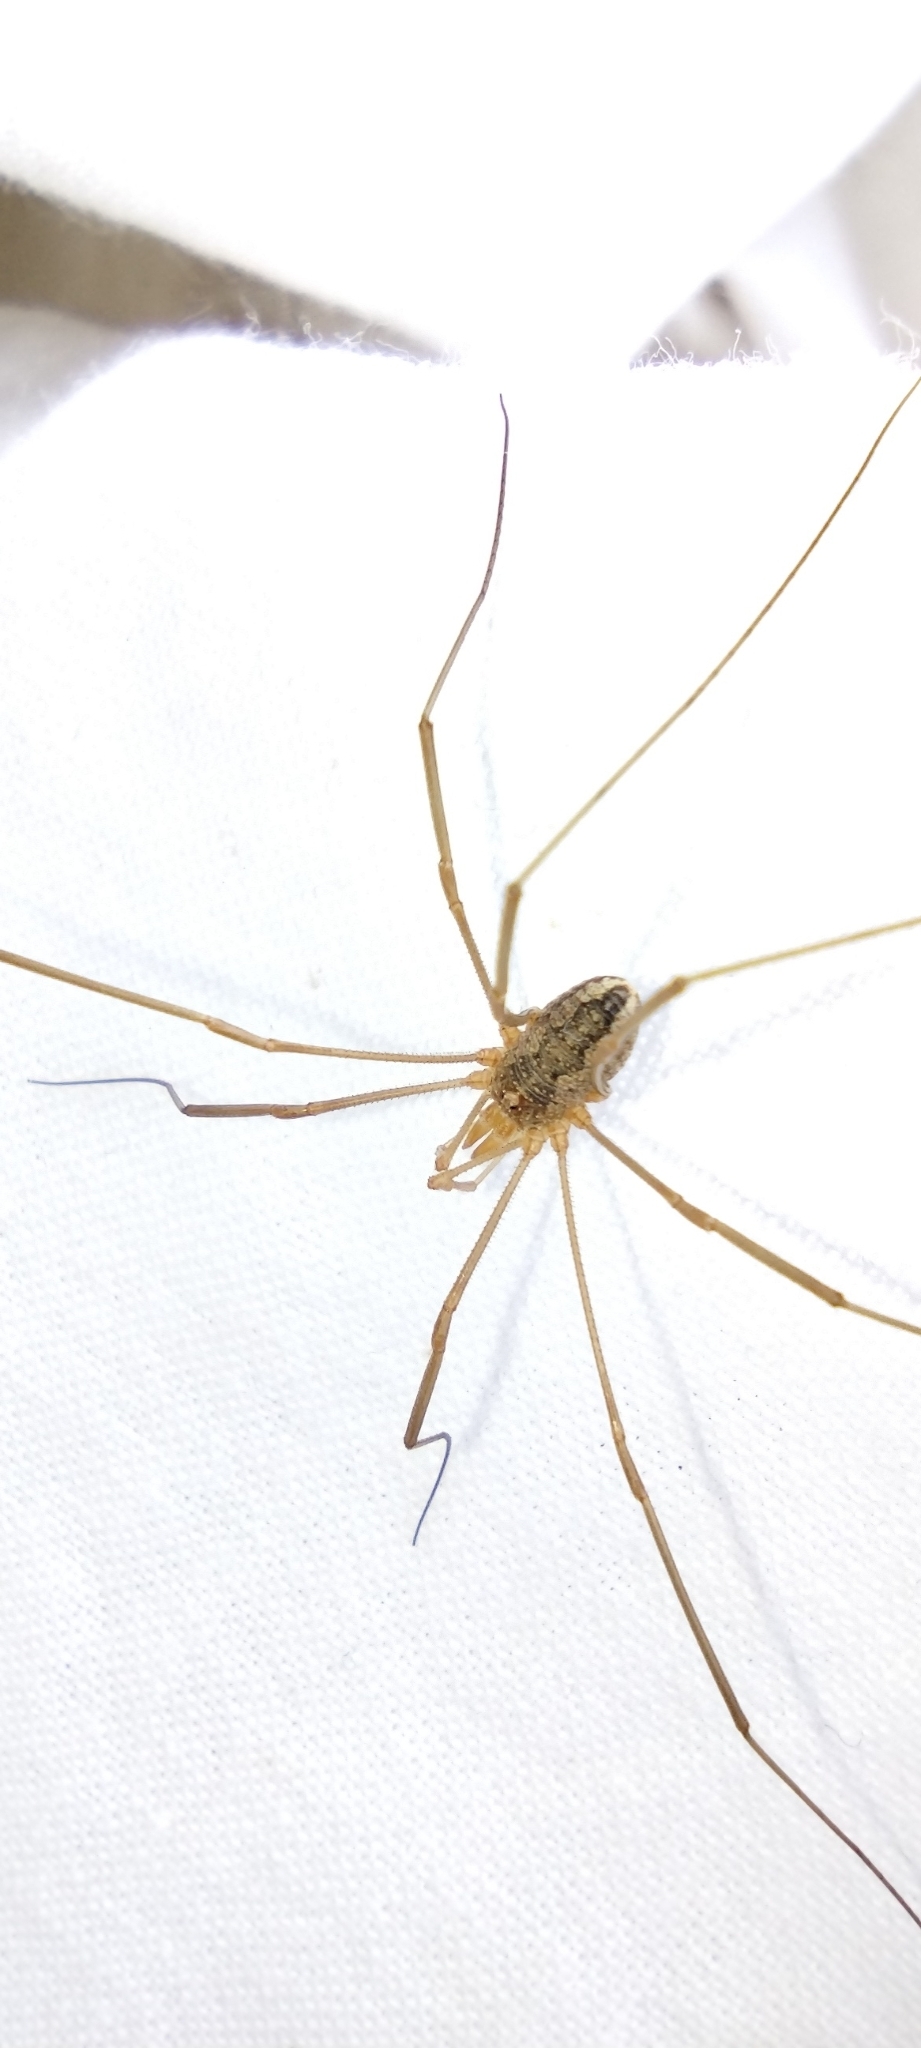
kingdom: Animalia
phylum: Arthropoda
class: Arachnida
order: Opiliones
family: Phalangiidae
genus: Phalangium
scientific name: Phalangium opilio
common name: Daddy longleg
